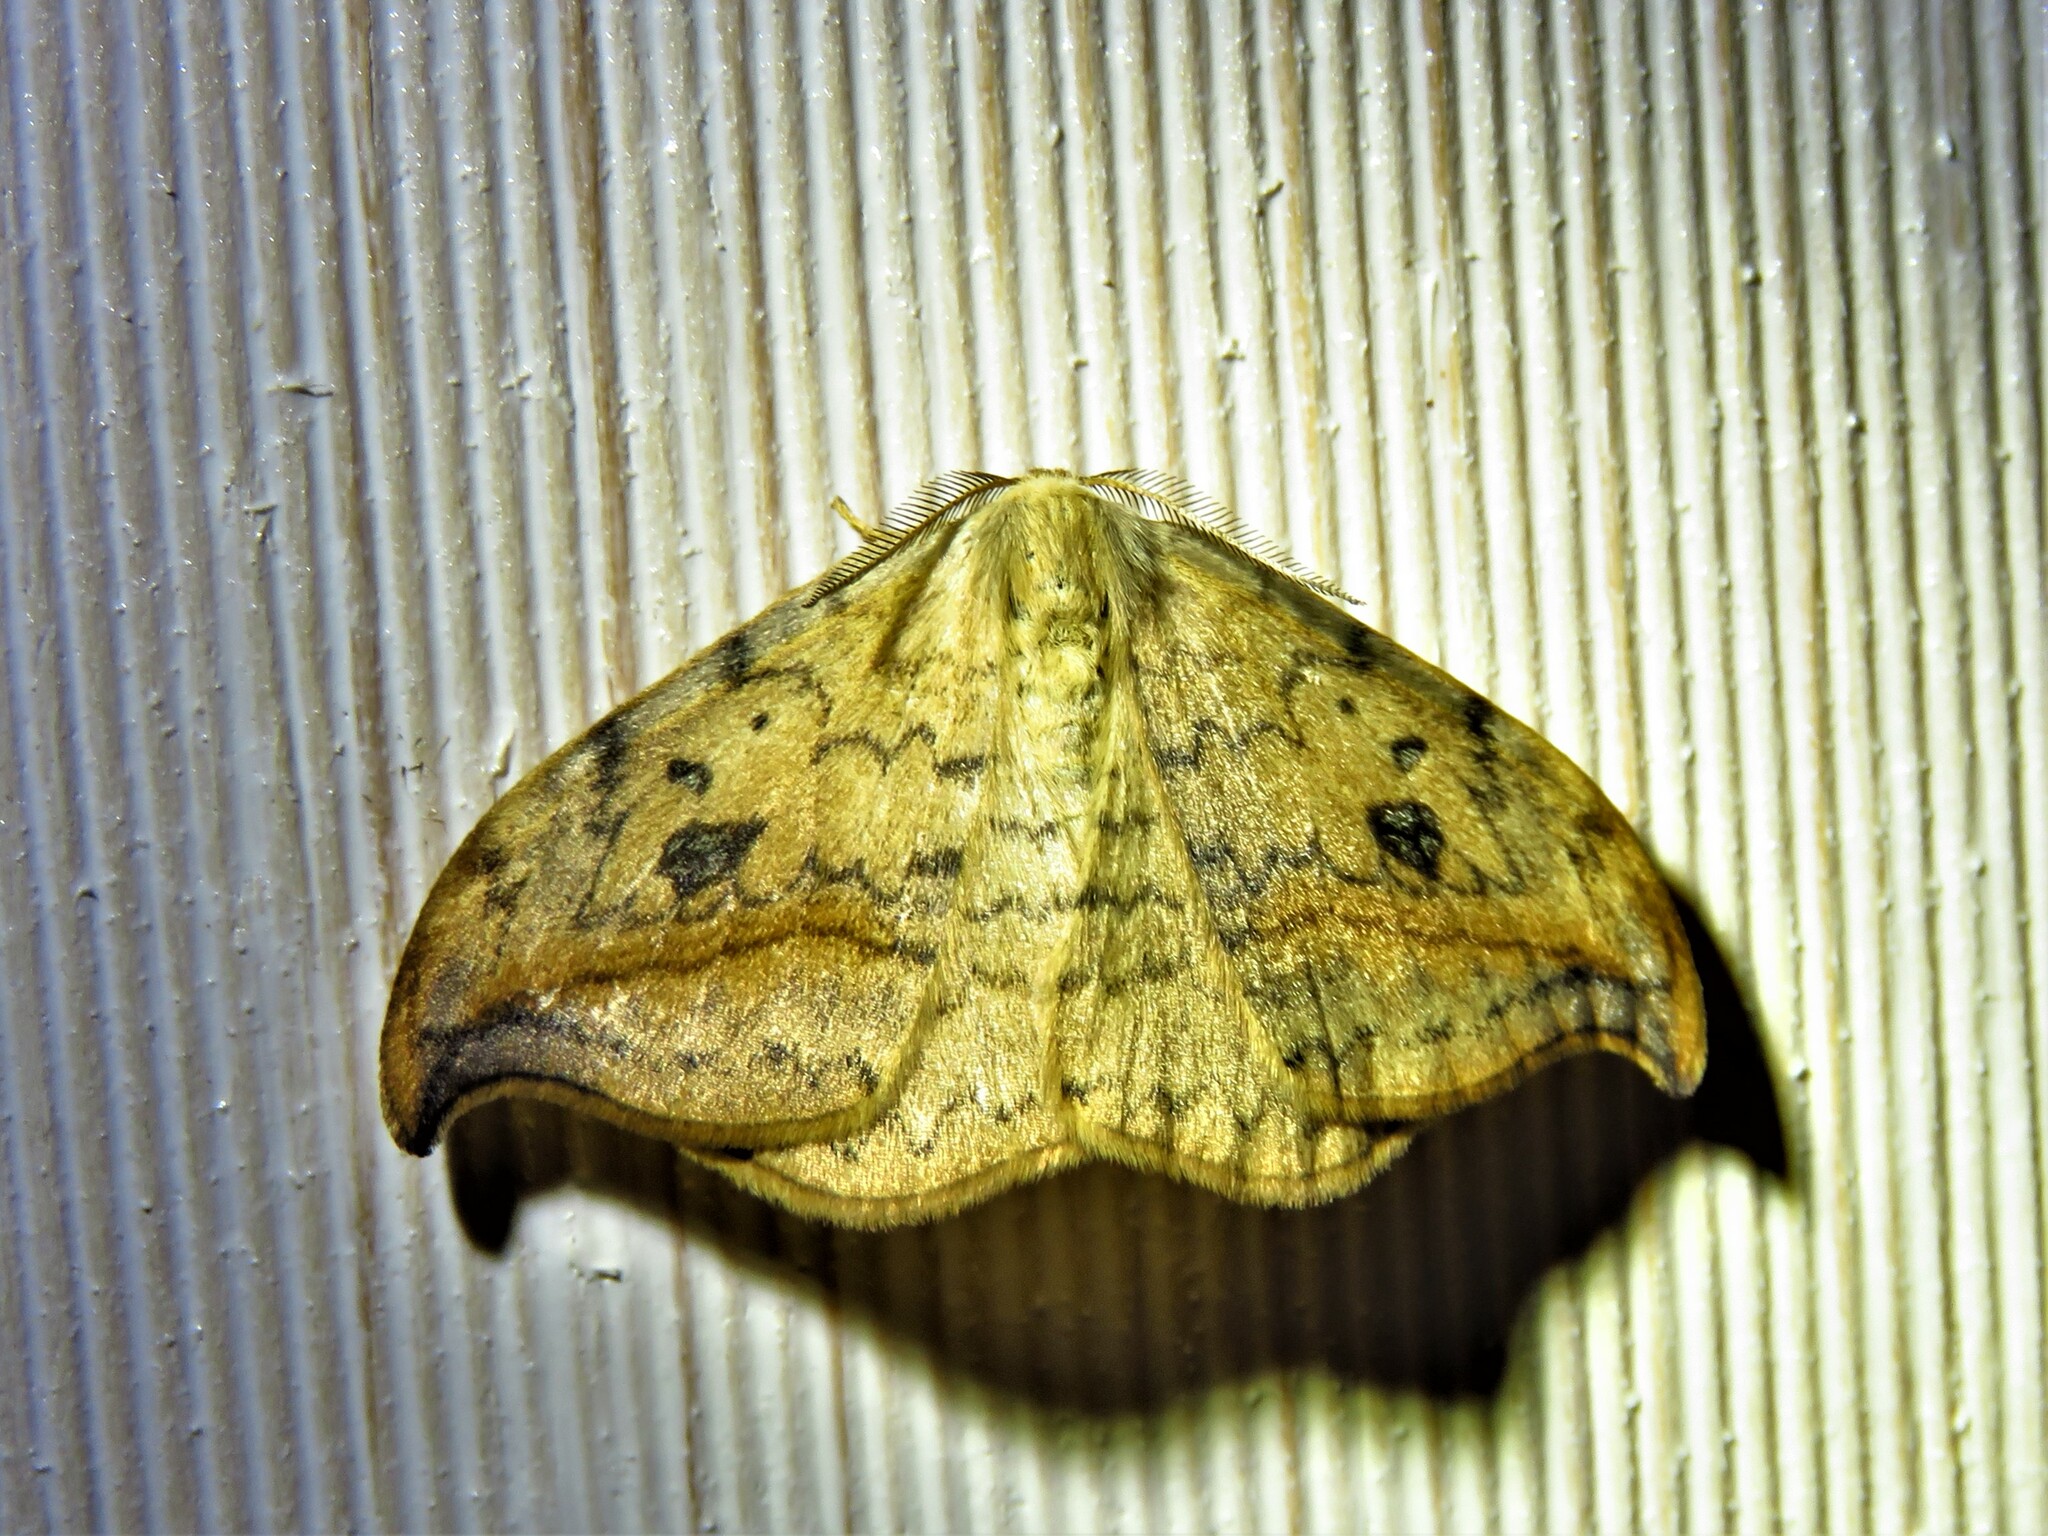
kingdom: Animalia
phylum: Arthropoda
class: Insecta
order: Lepidoptera
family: Drepanidae
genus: Drepana
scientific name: Drepana falcataria
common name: Pebble hook-tip
